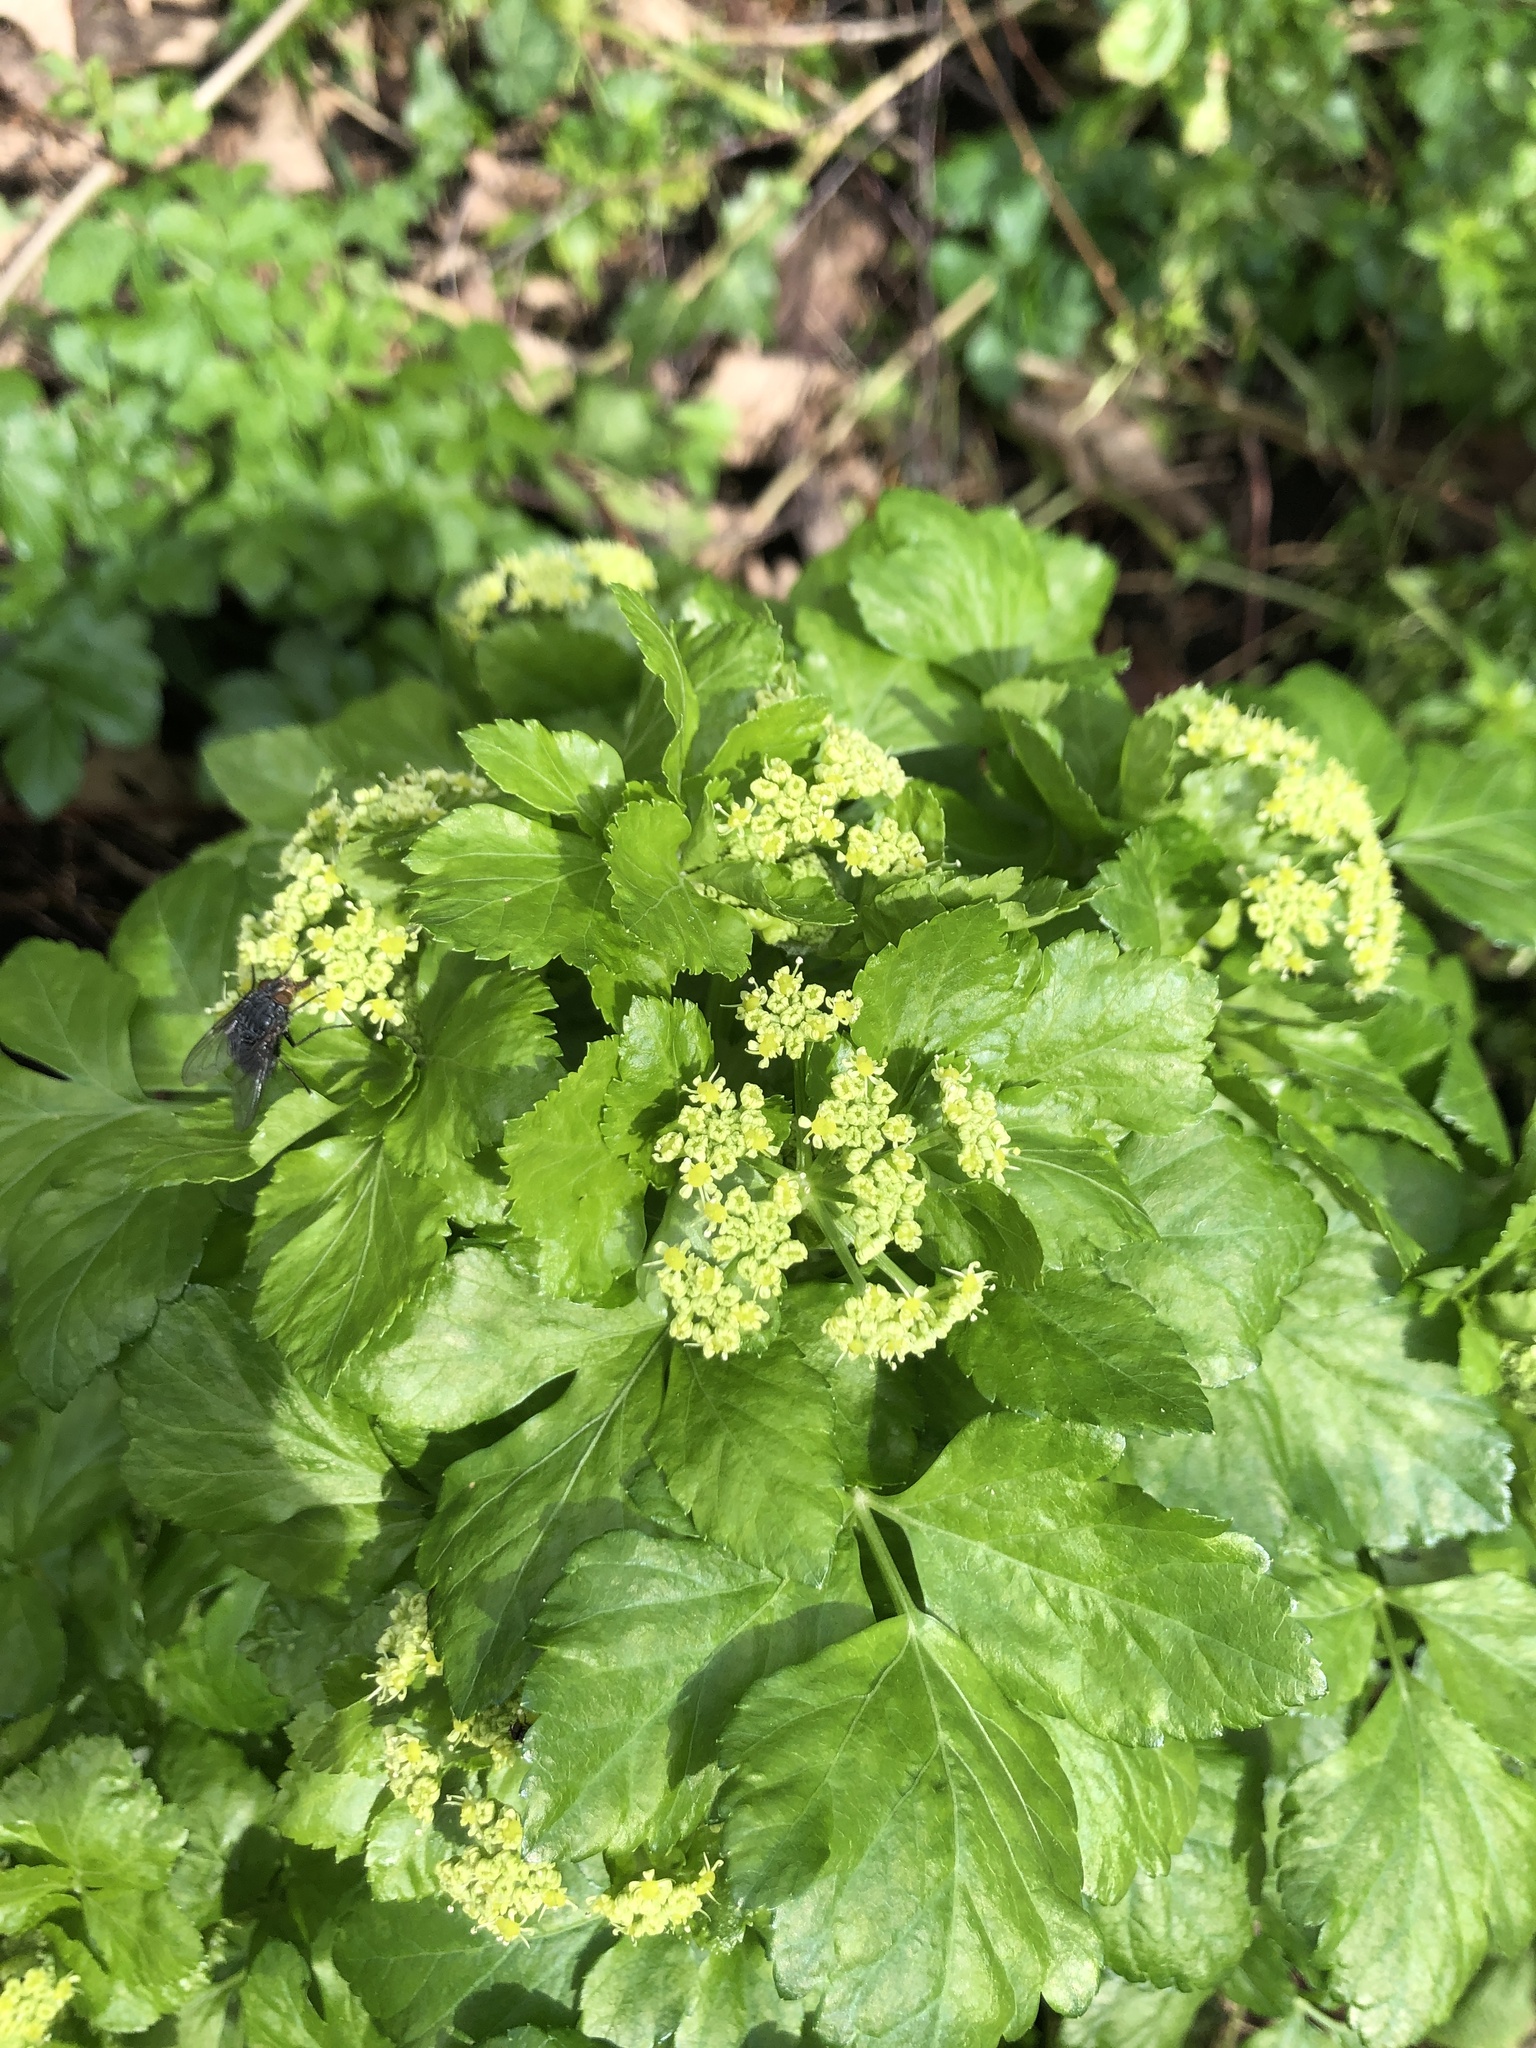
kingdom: Plantae
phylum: Tracheophyta
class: Magnoliopsida
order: Apiales
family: Apiaceae
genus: Smyrnium
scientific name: Smyrnium olusatrum
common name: Alexanders
